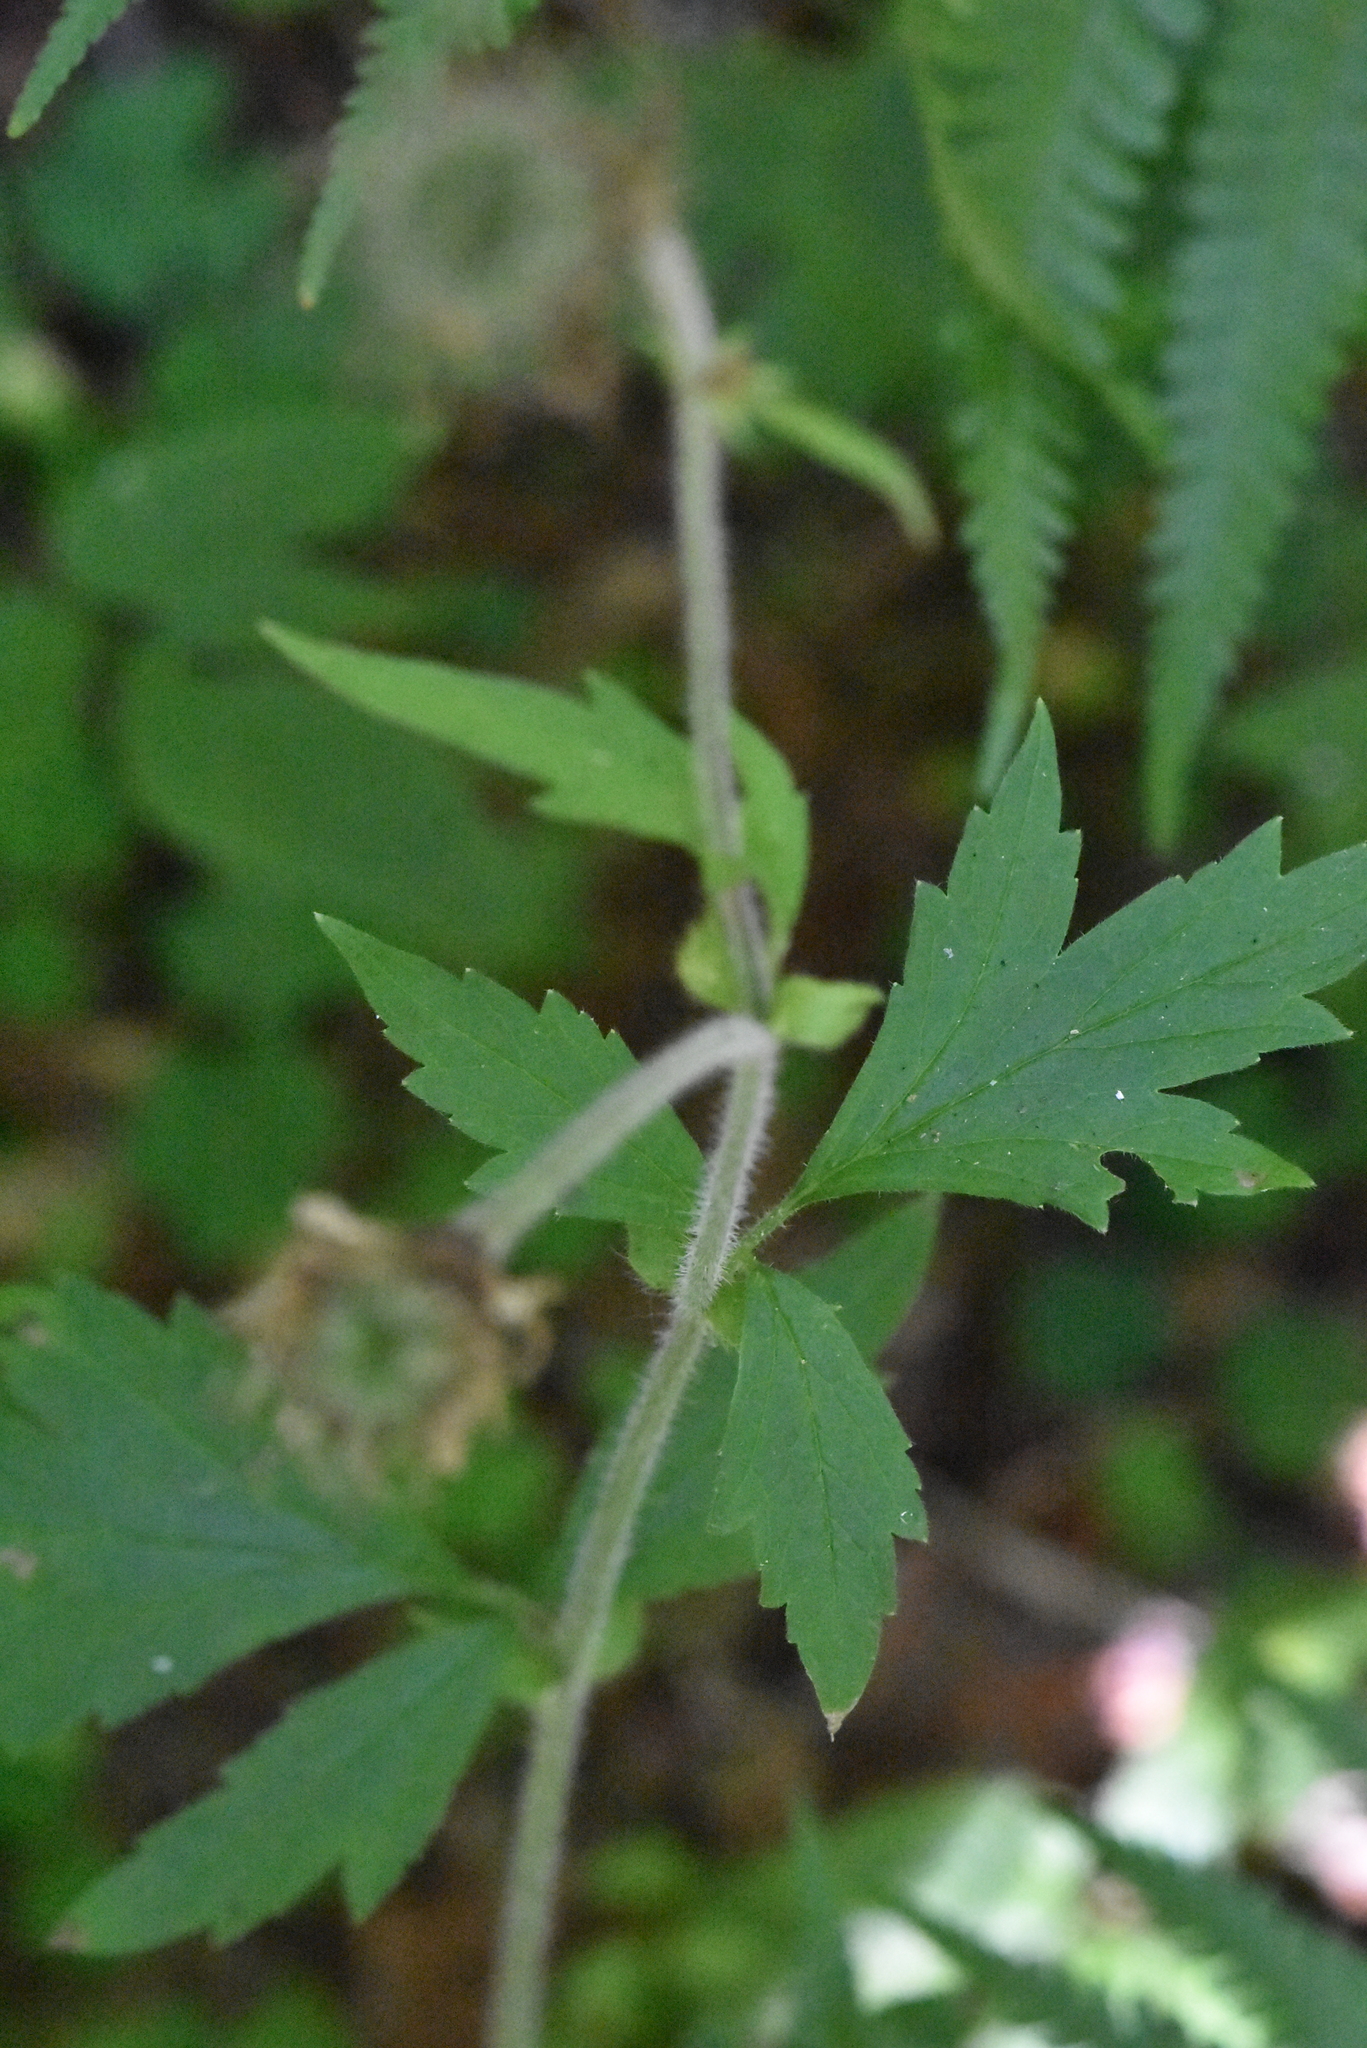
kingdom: Plantae
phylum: Tracheophyta
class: Magnoliopsida
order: Rosales
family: Rosaceae
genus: Geum
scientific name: Geum rivale
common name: Water avens
